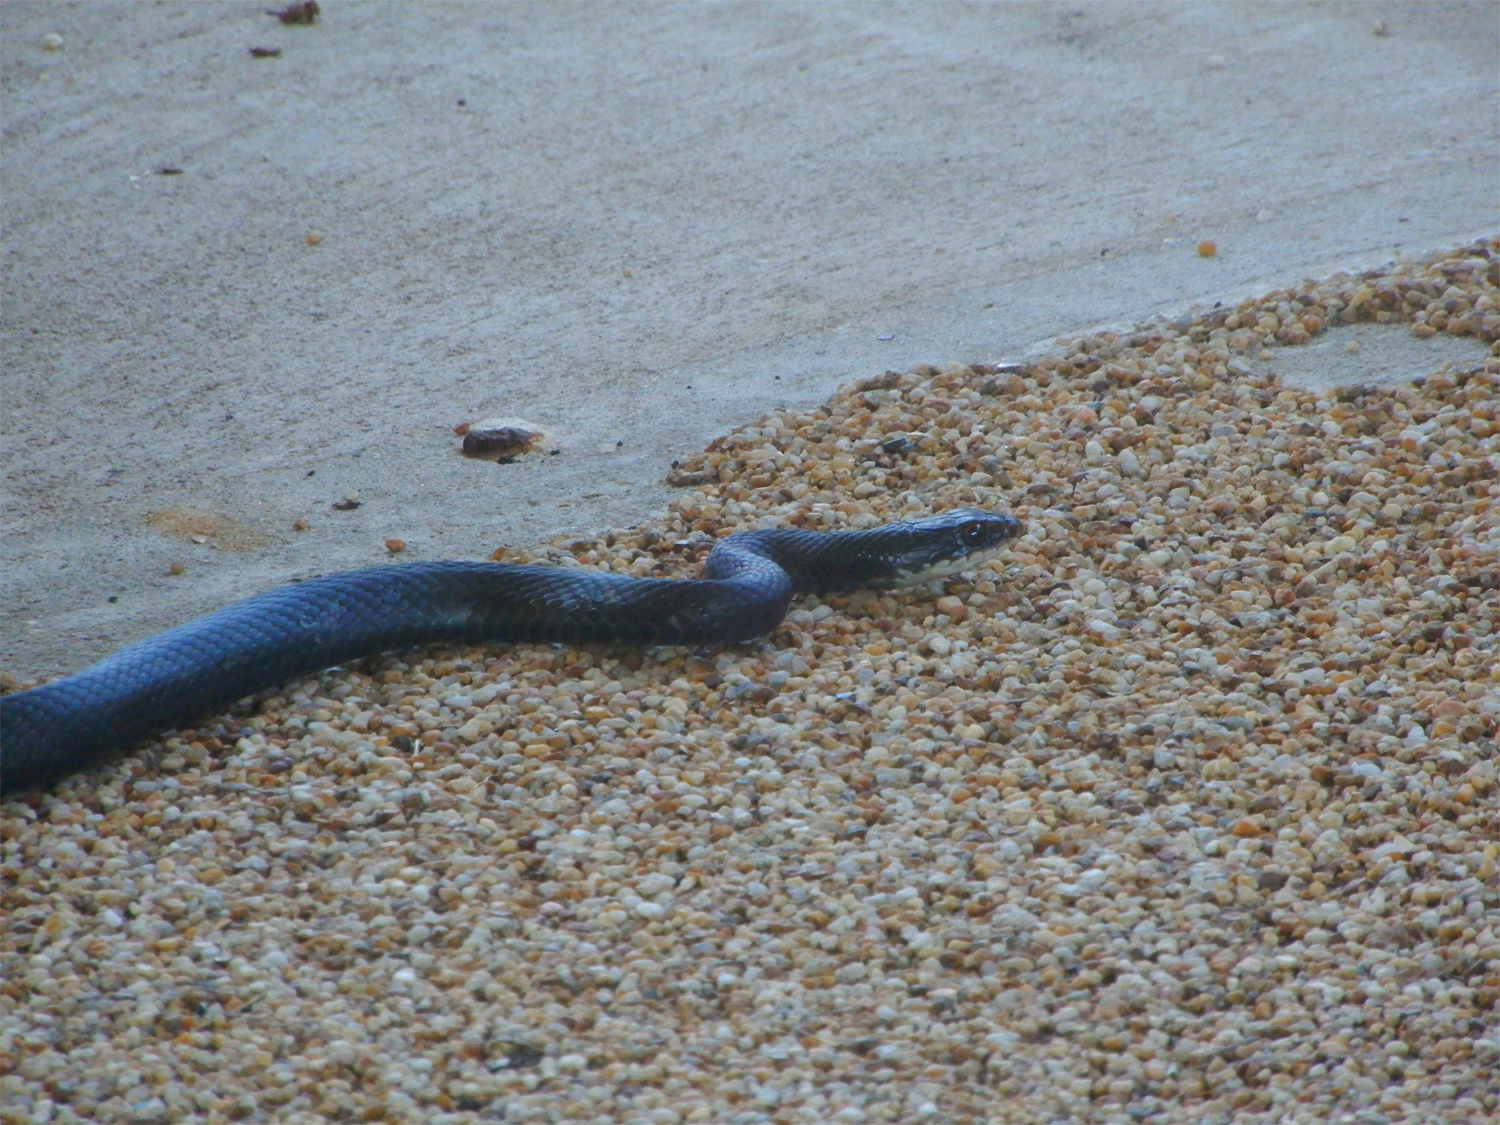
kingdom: Animalia
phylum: Chordata
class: Squamata
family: Colubridae
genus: Coluber
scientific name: Coluber constrictor
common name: Eastern racer
